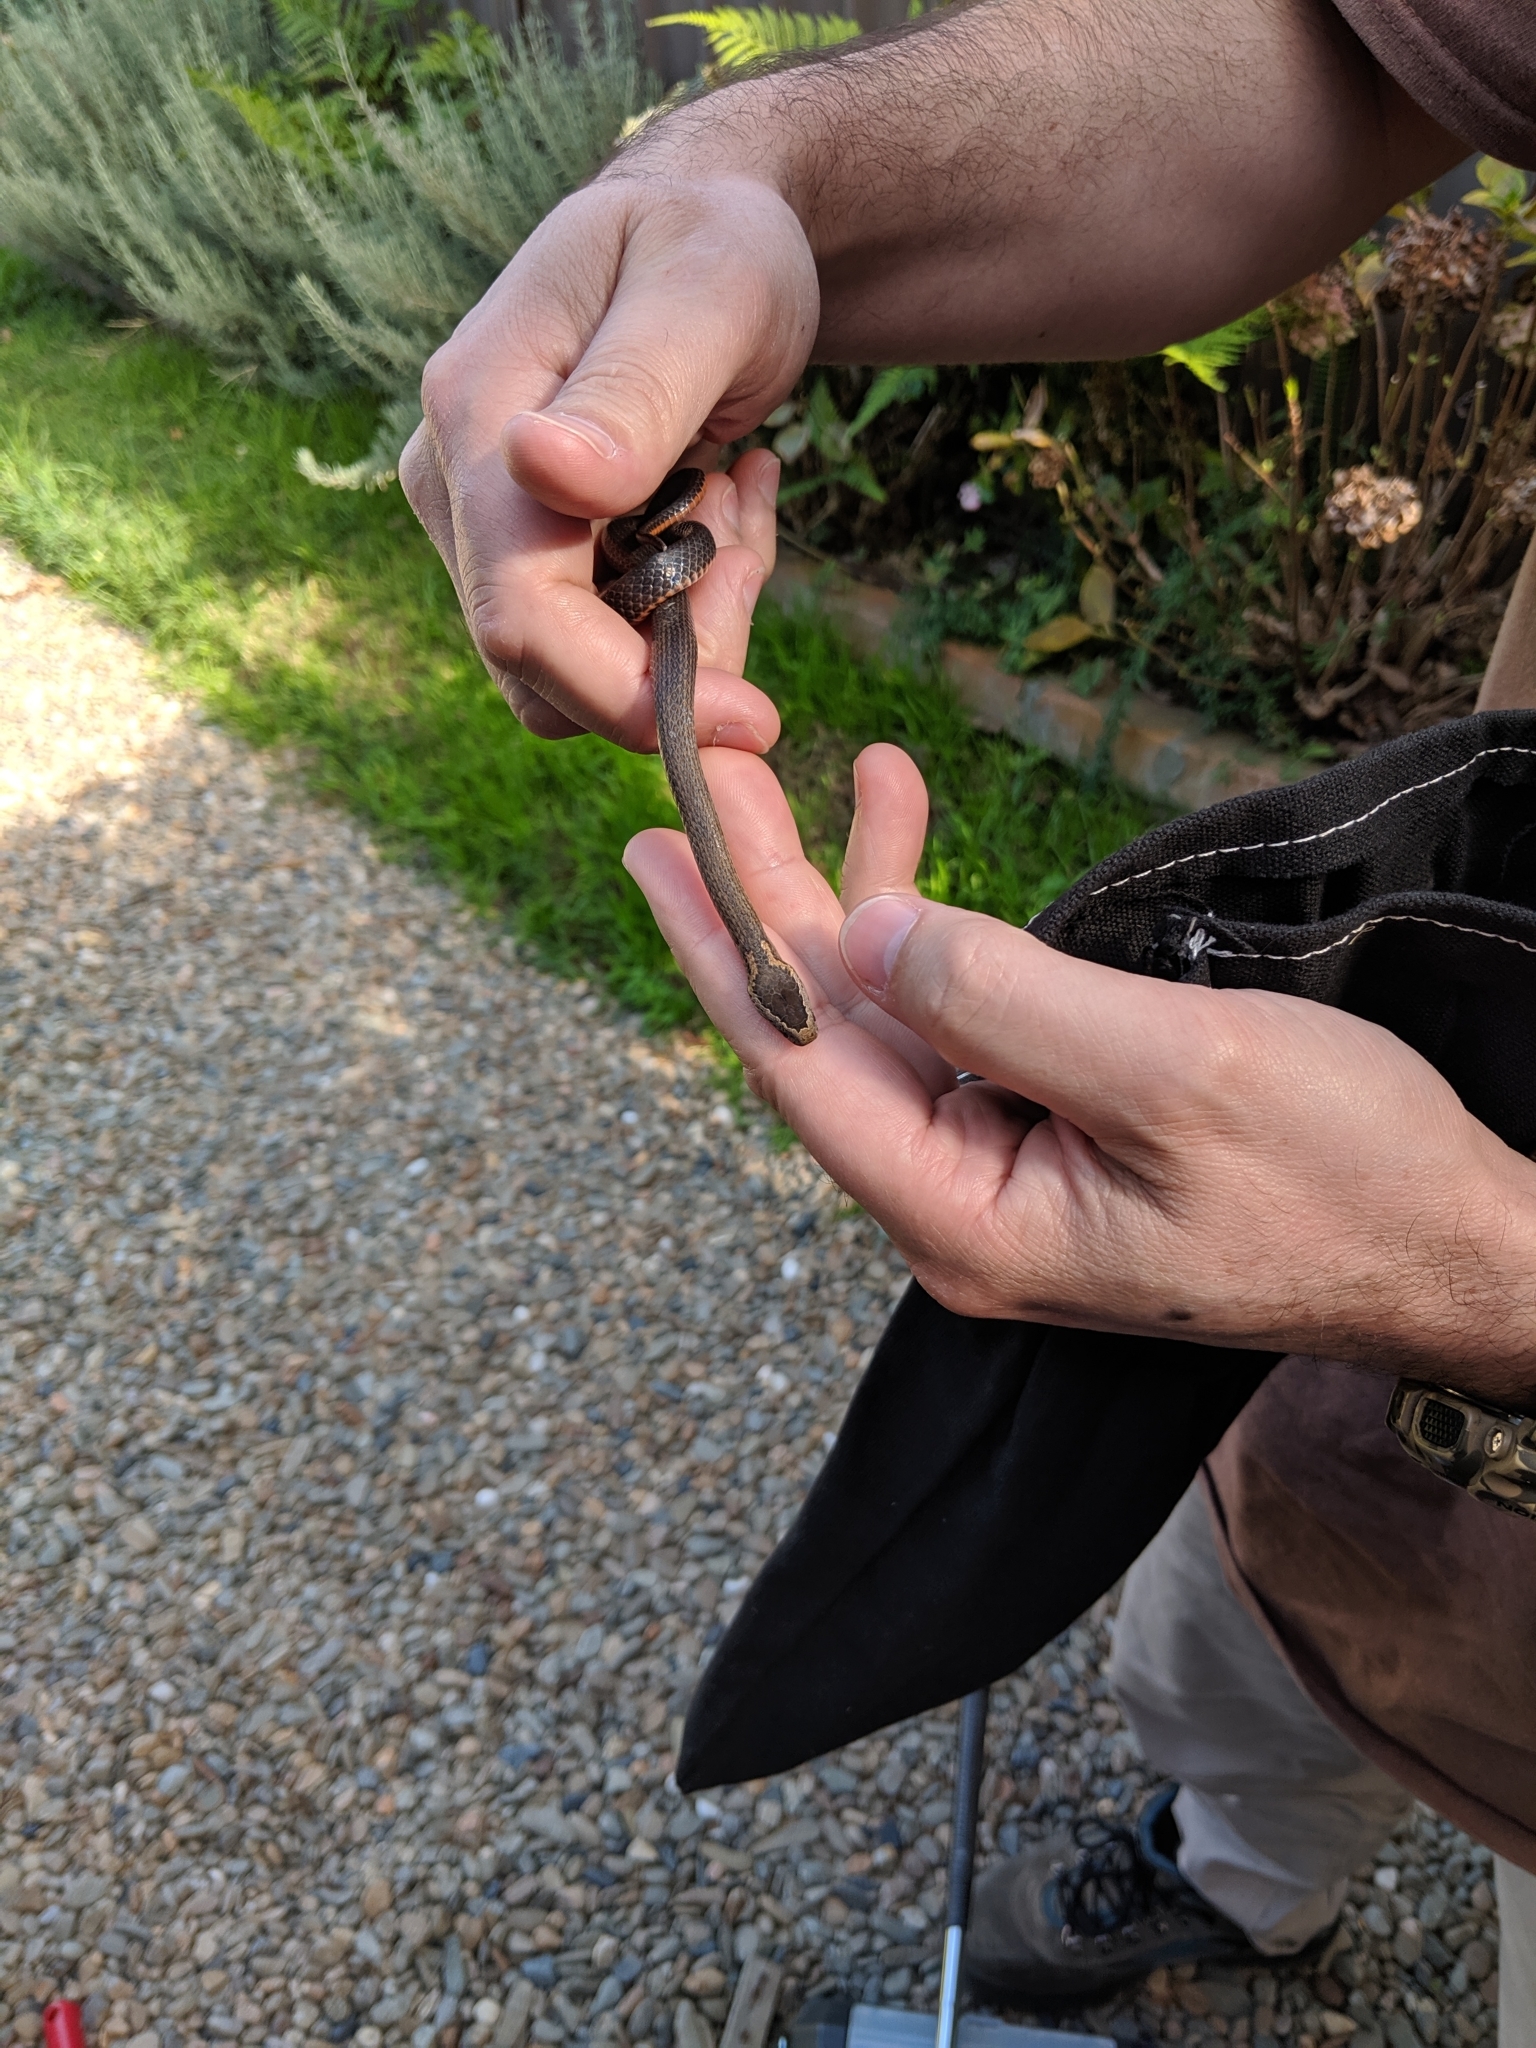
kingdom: Animalia
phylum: Chordata
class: Squamata
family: Elapidae
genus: Cacophis
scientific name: Cacophis squamulosus
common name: Golden crowned snake
